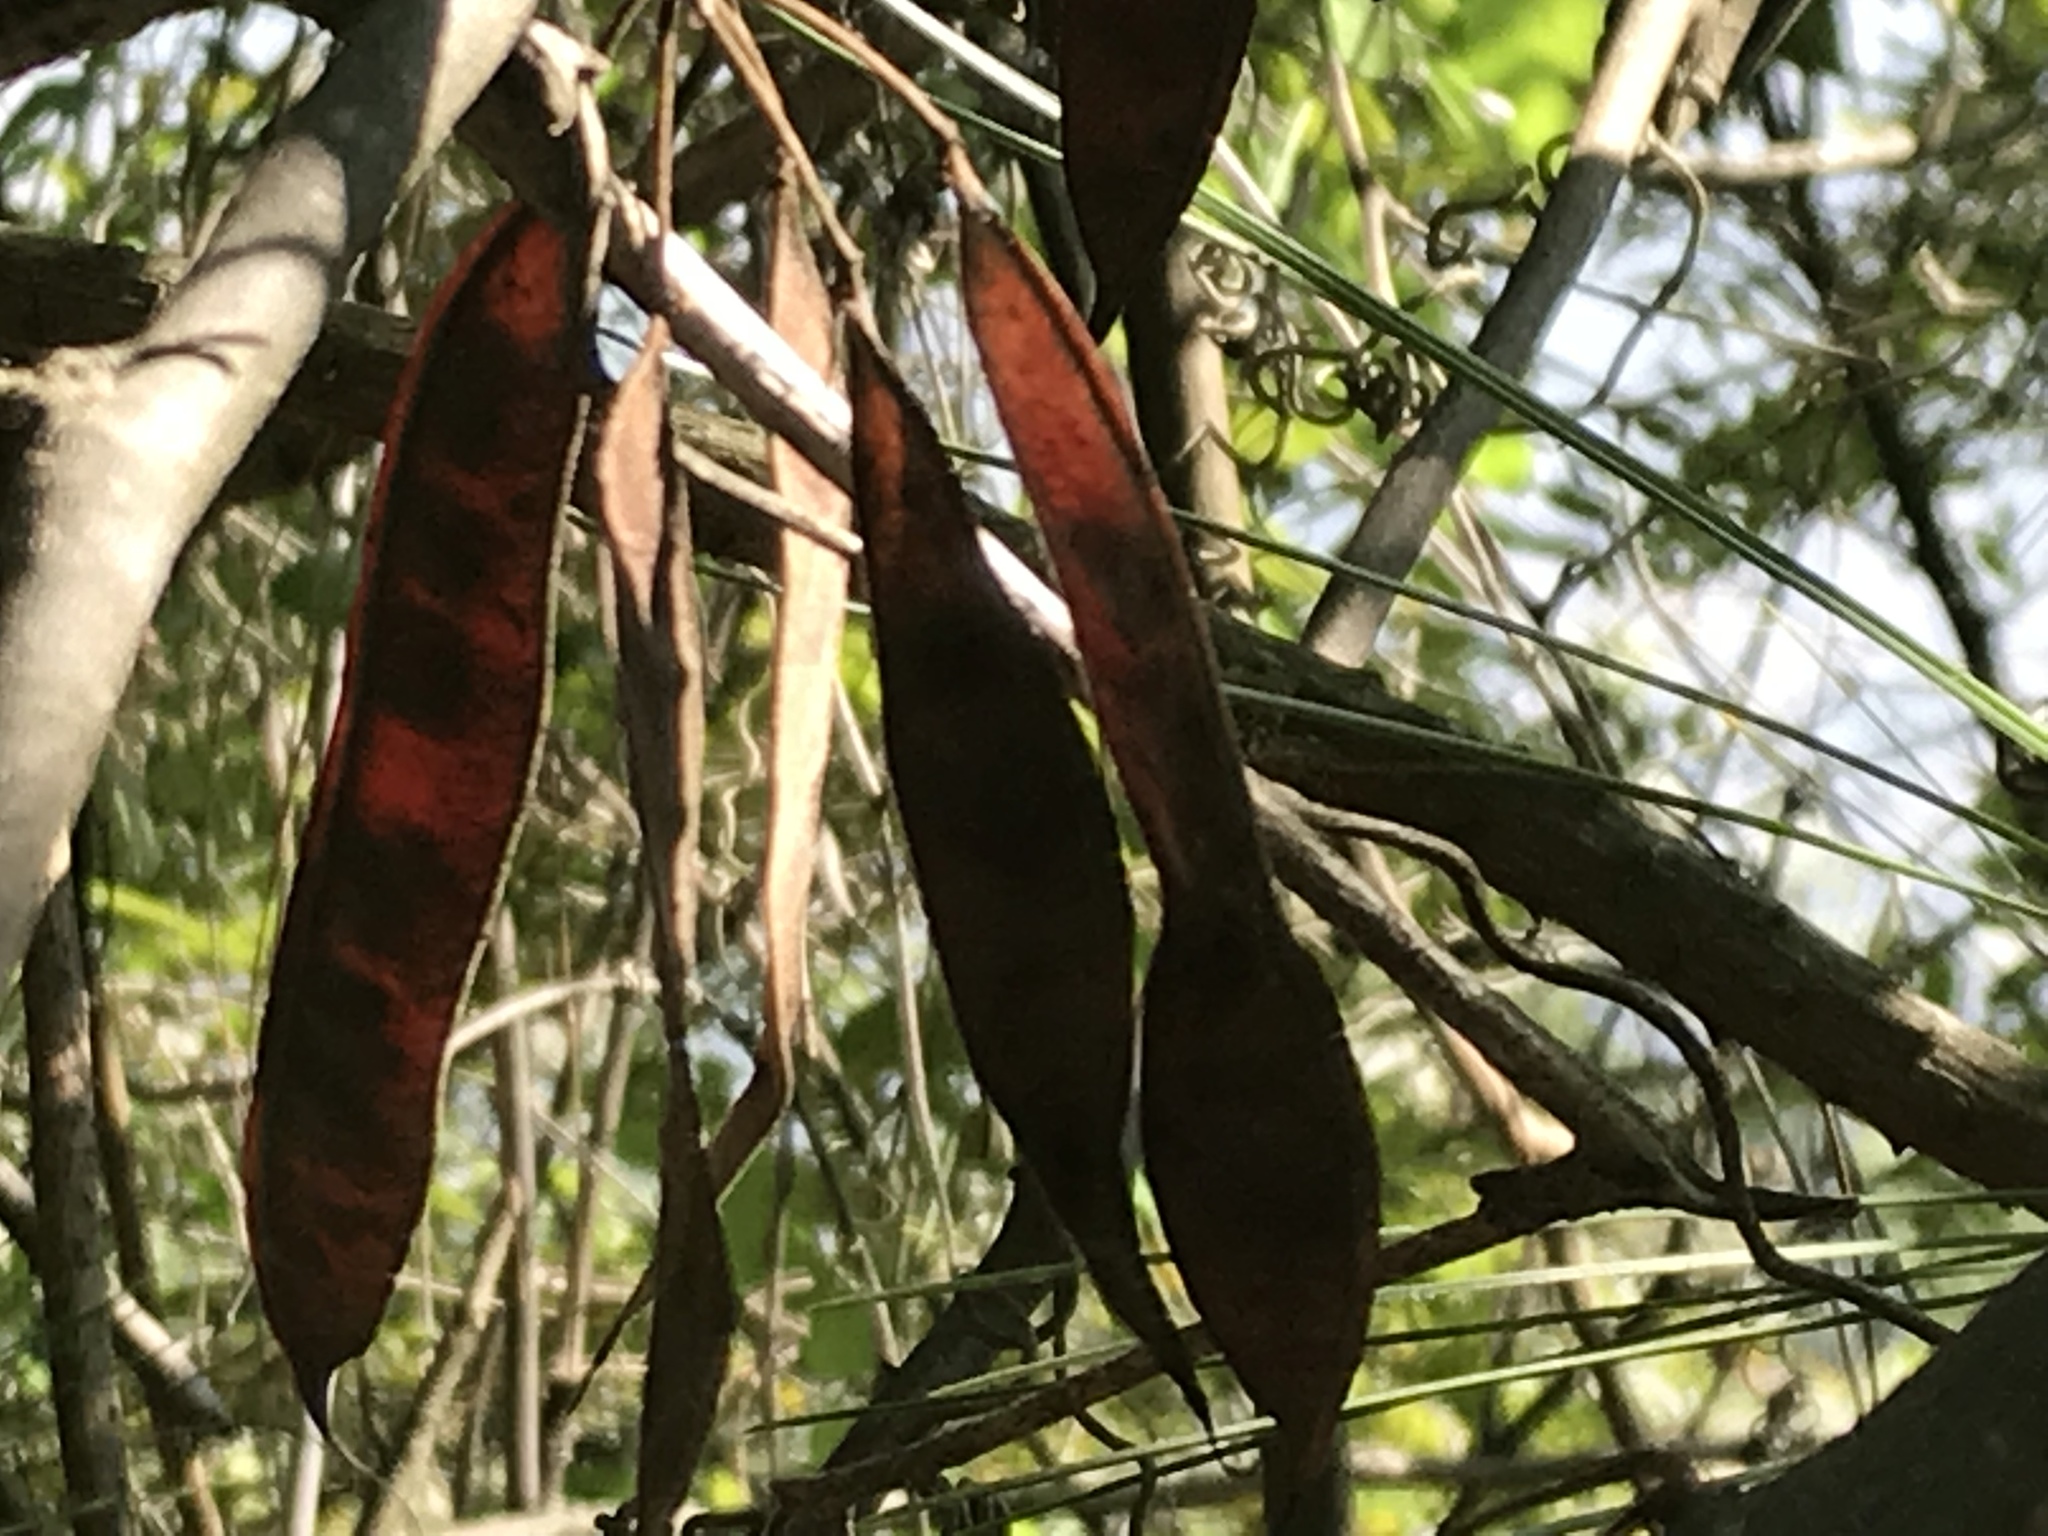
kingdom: Plantae
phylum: Tracheophyta
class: Magnoliopsida
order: Fabales
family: Fabaceae
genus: Cercis
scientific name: Cercis canadensis
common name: Eastern redbud
